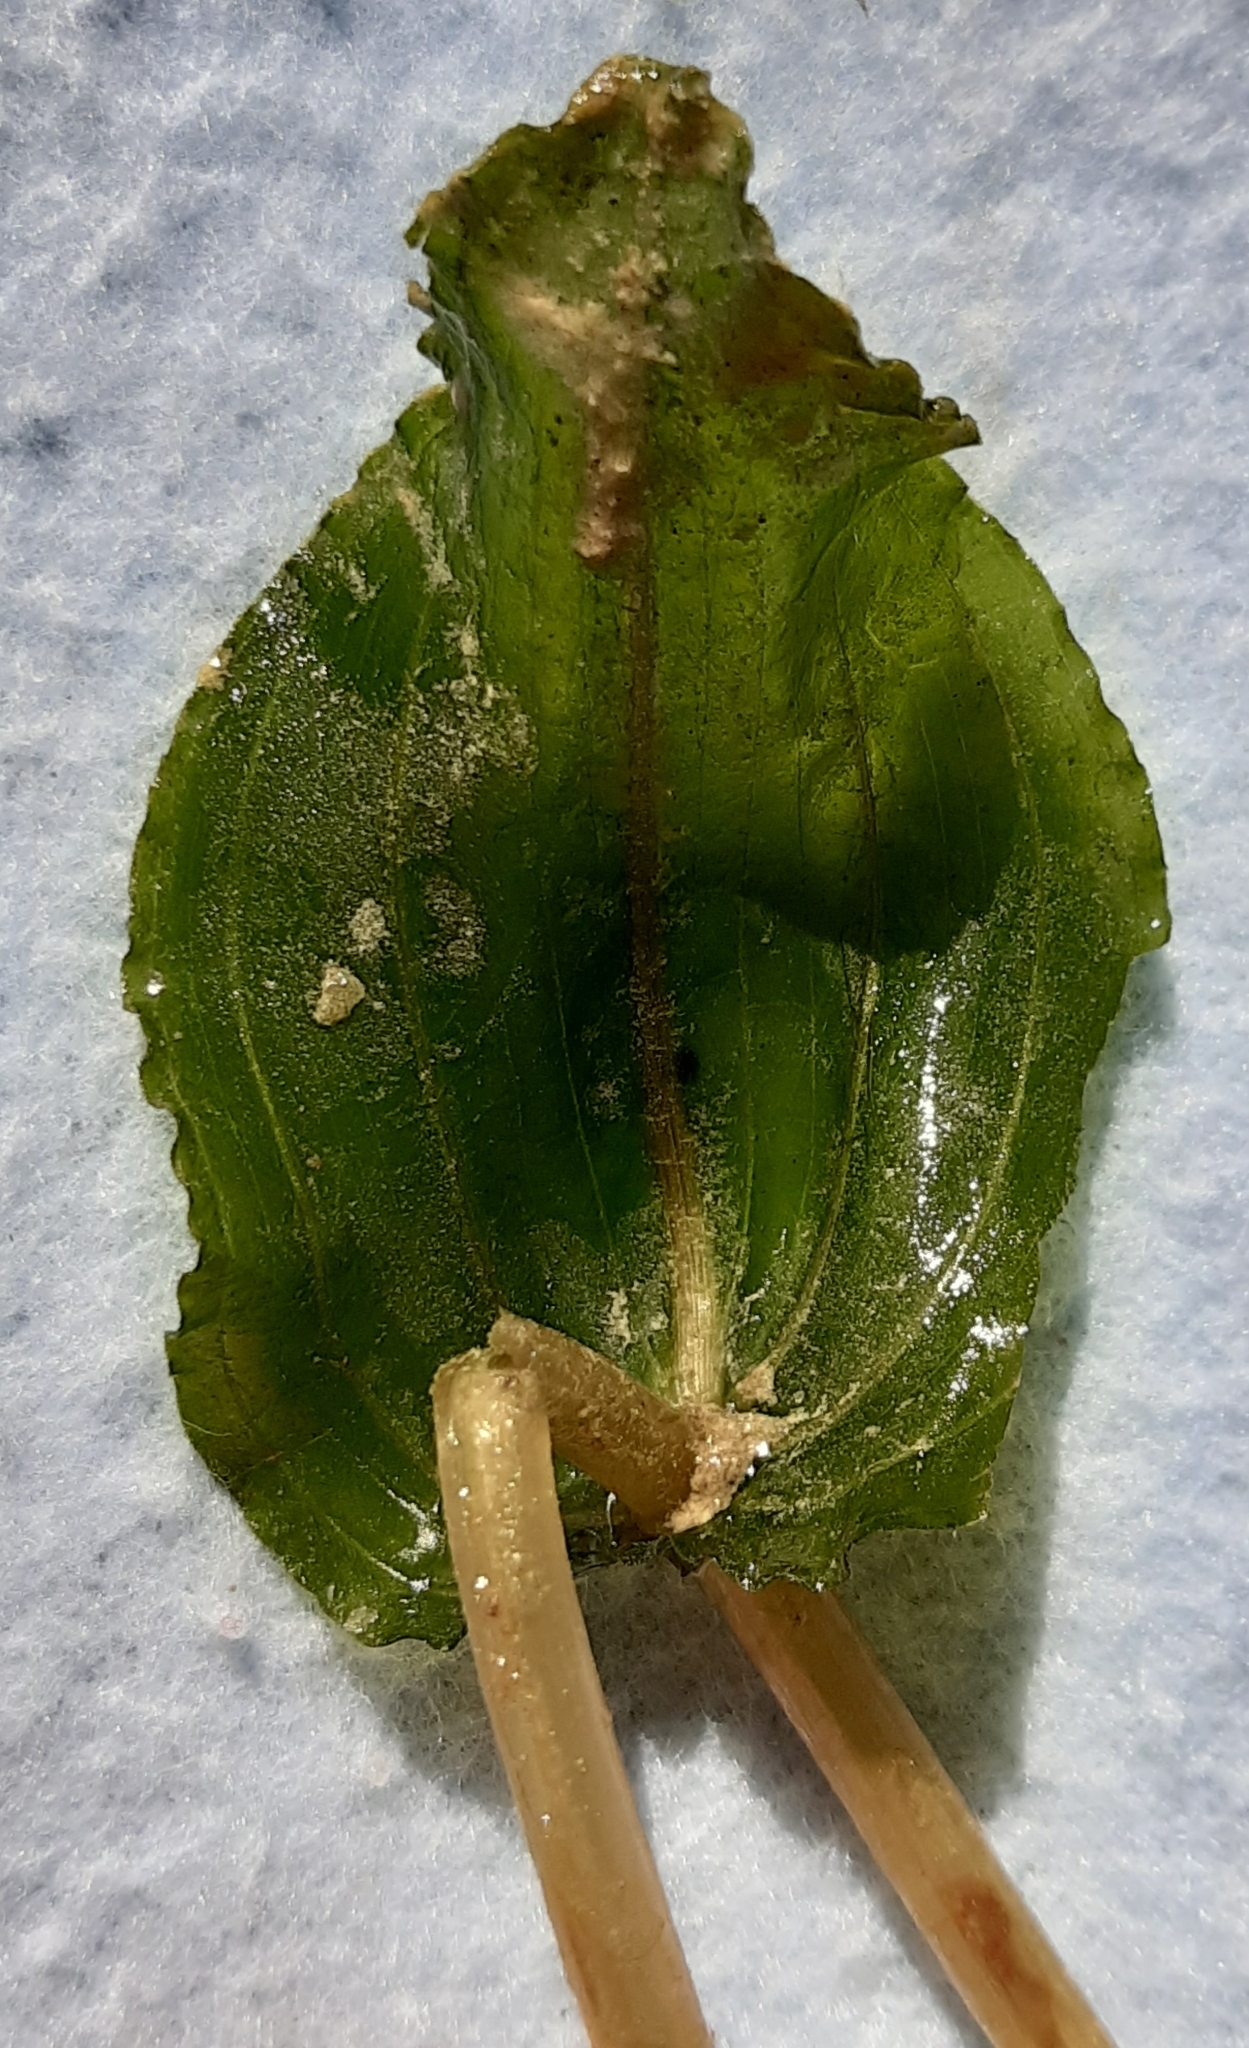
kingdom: Plantae
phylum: Tracheophyta
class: Liliopsida
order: Alismatales
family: Potamogetonaceae
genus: Potamogeton
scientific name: Potamogeton perfoliatus
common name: Perfoliate pondweed
